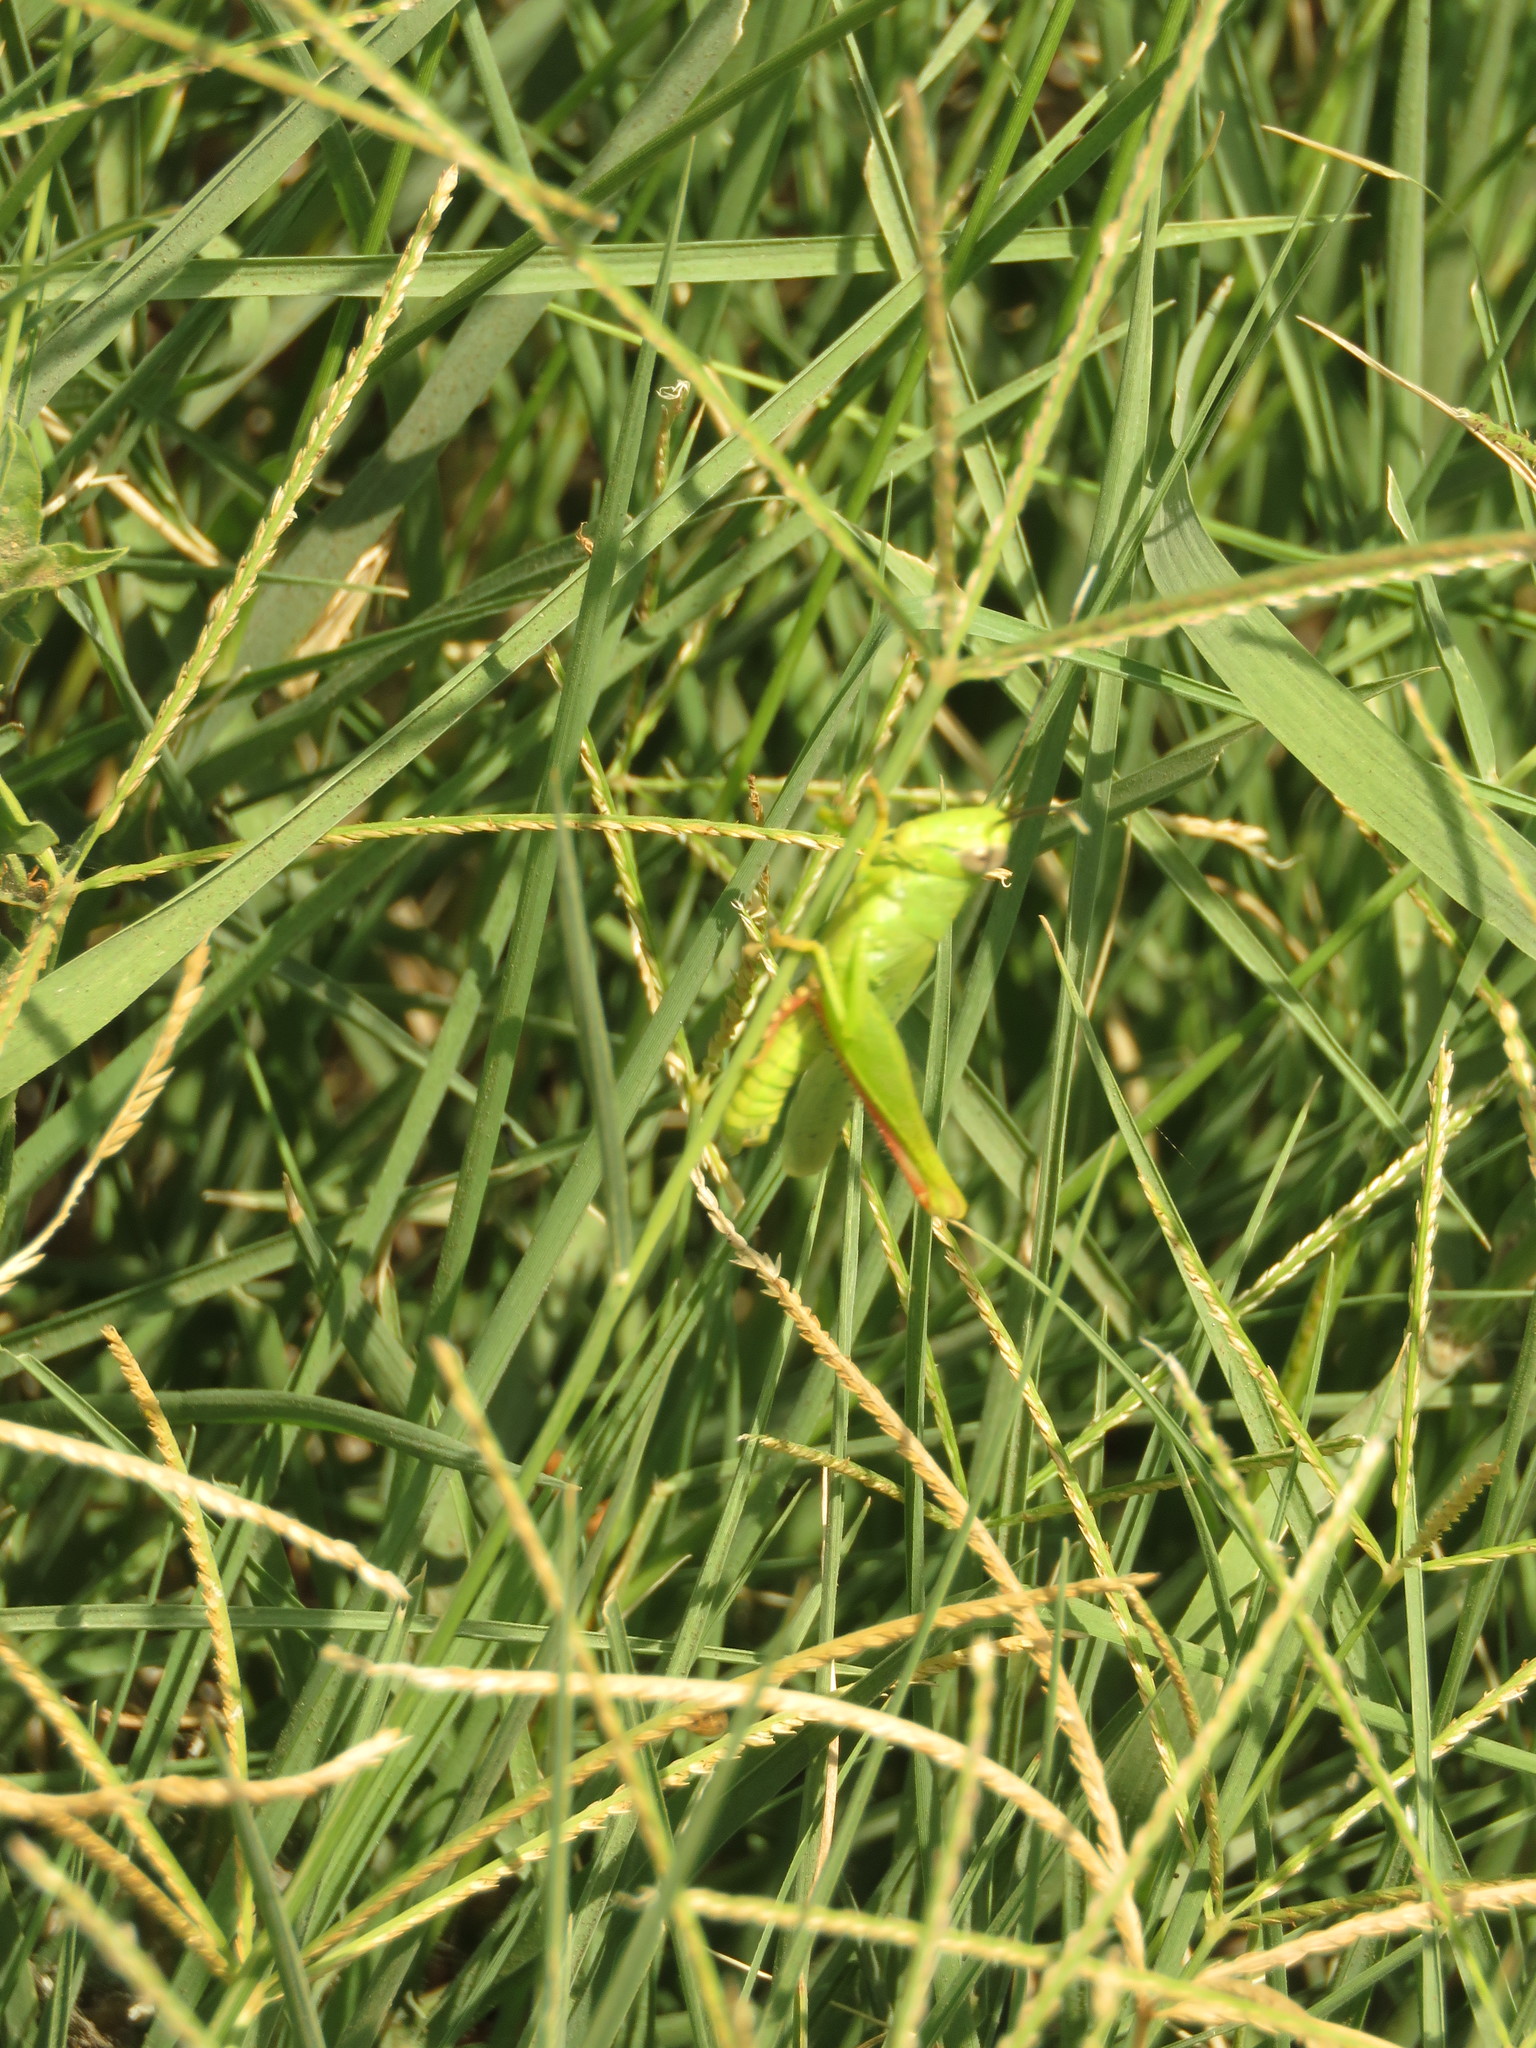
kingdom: Animalia
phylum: Arthropoda
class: Insecta
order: Orthoptera
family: Acrididae
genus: Heteracris
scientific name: Heteracris pterosticha
